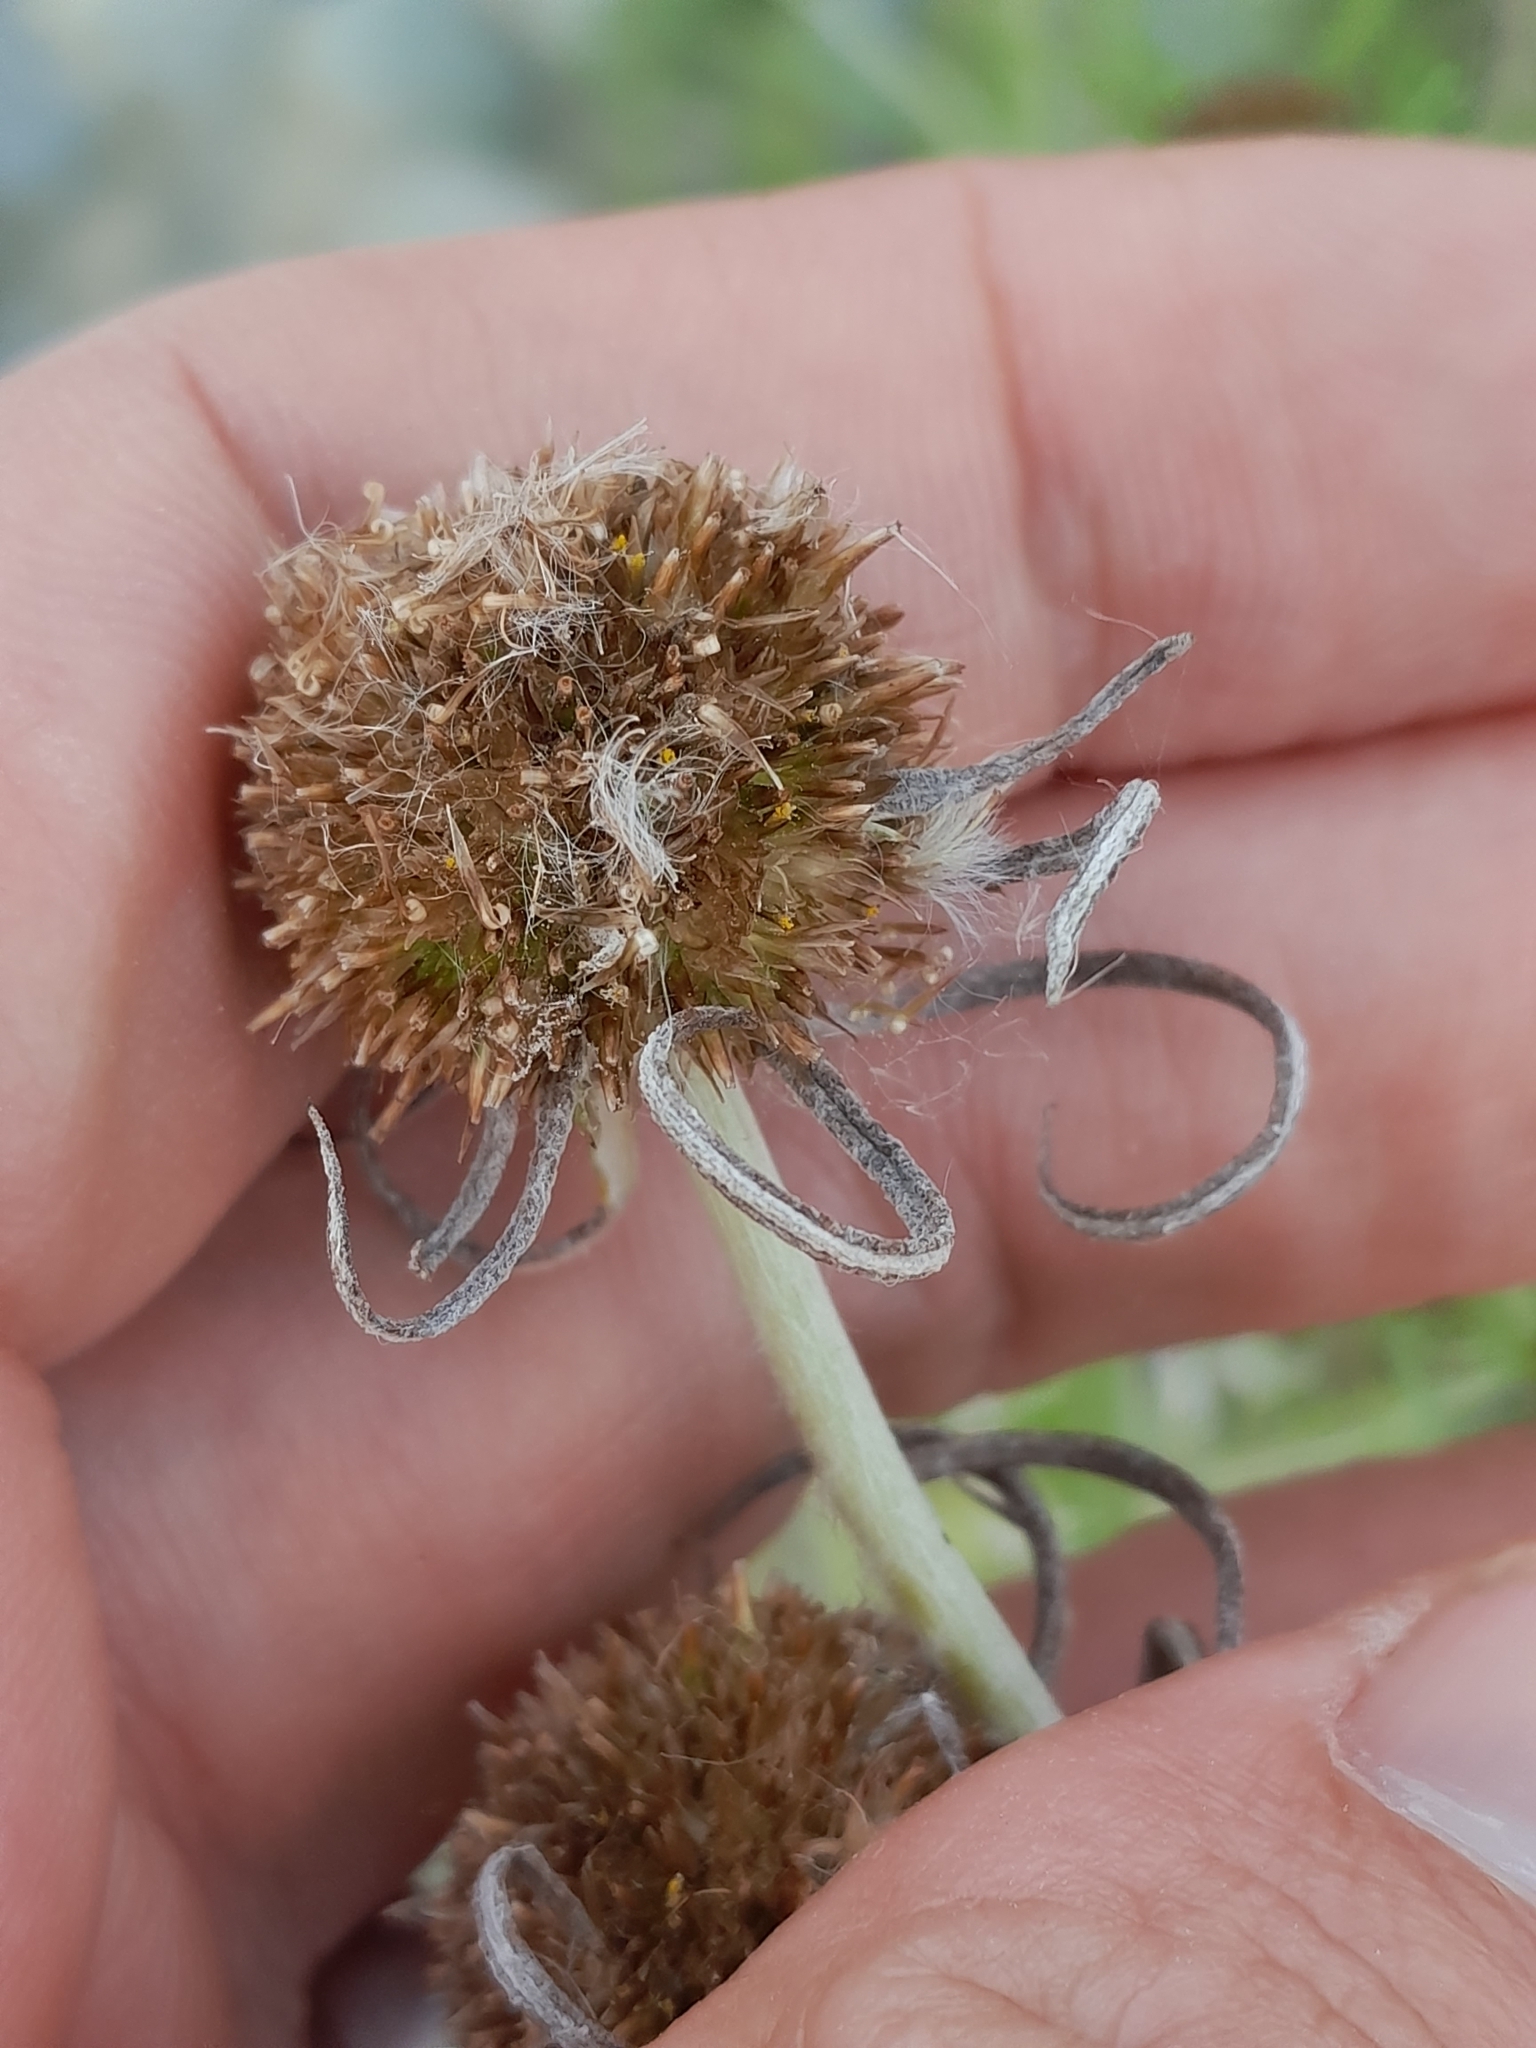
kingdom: Plantae
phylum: Tracheophyta
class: Magnoliopsida
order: Asterales
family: Asteraceae
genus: Euchiton
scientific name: Euchiton sphaericus
